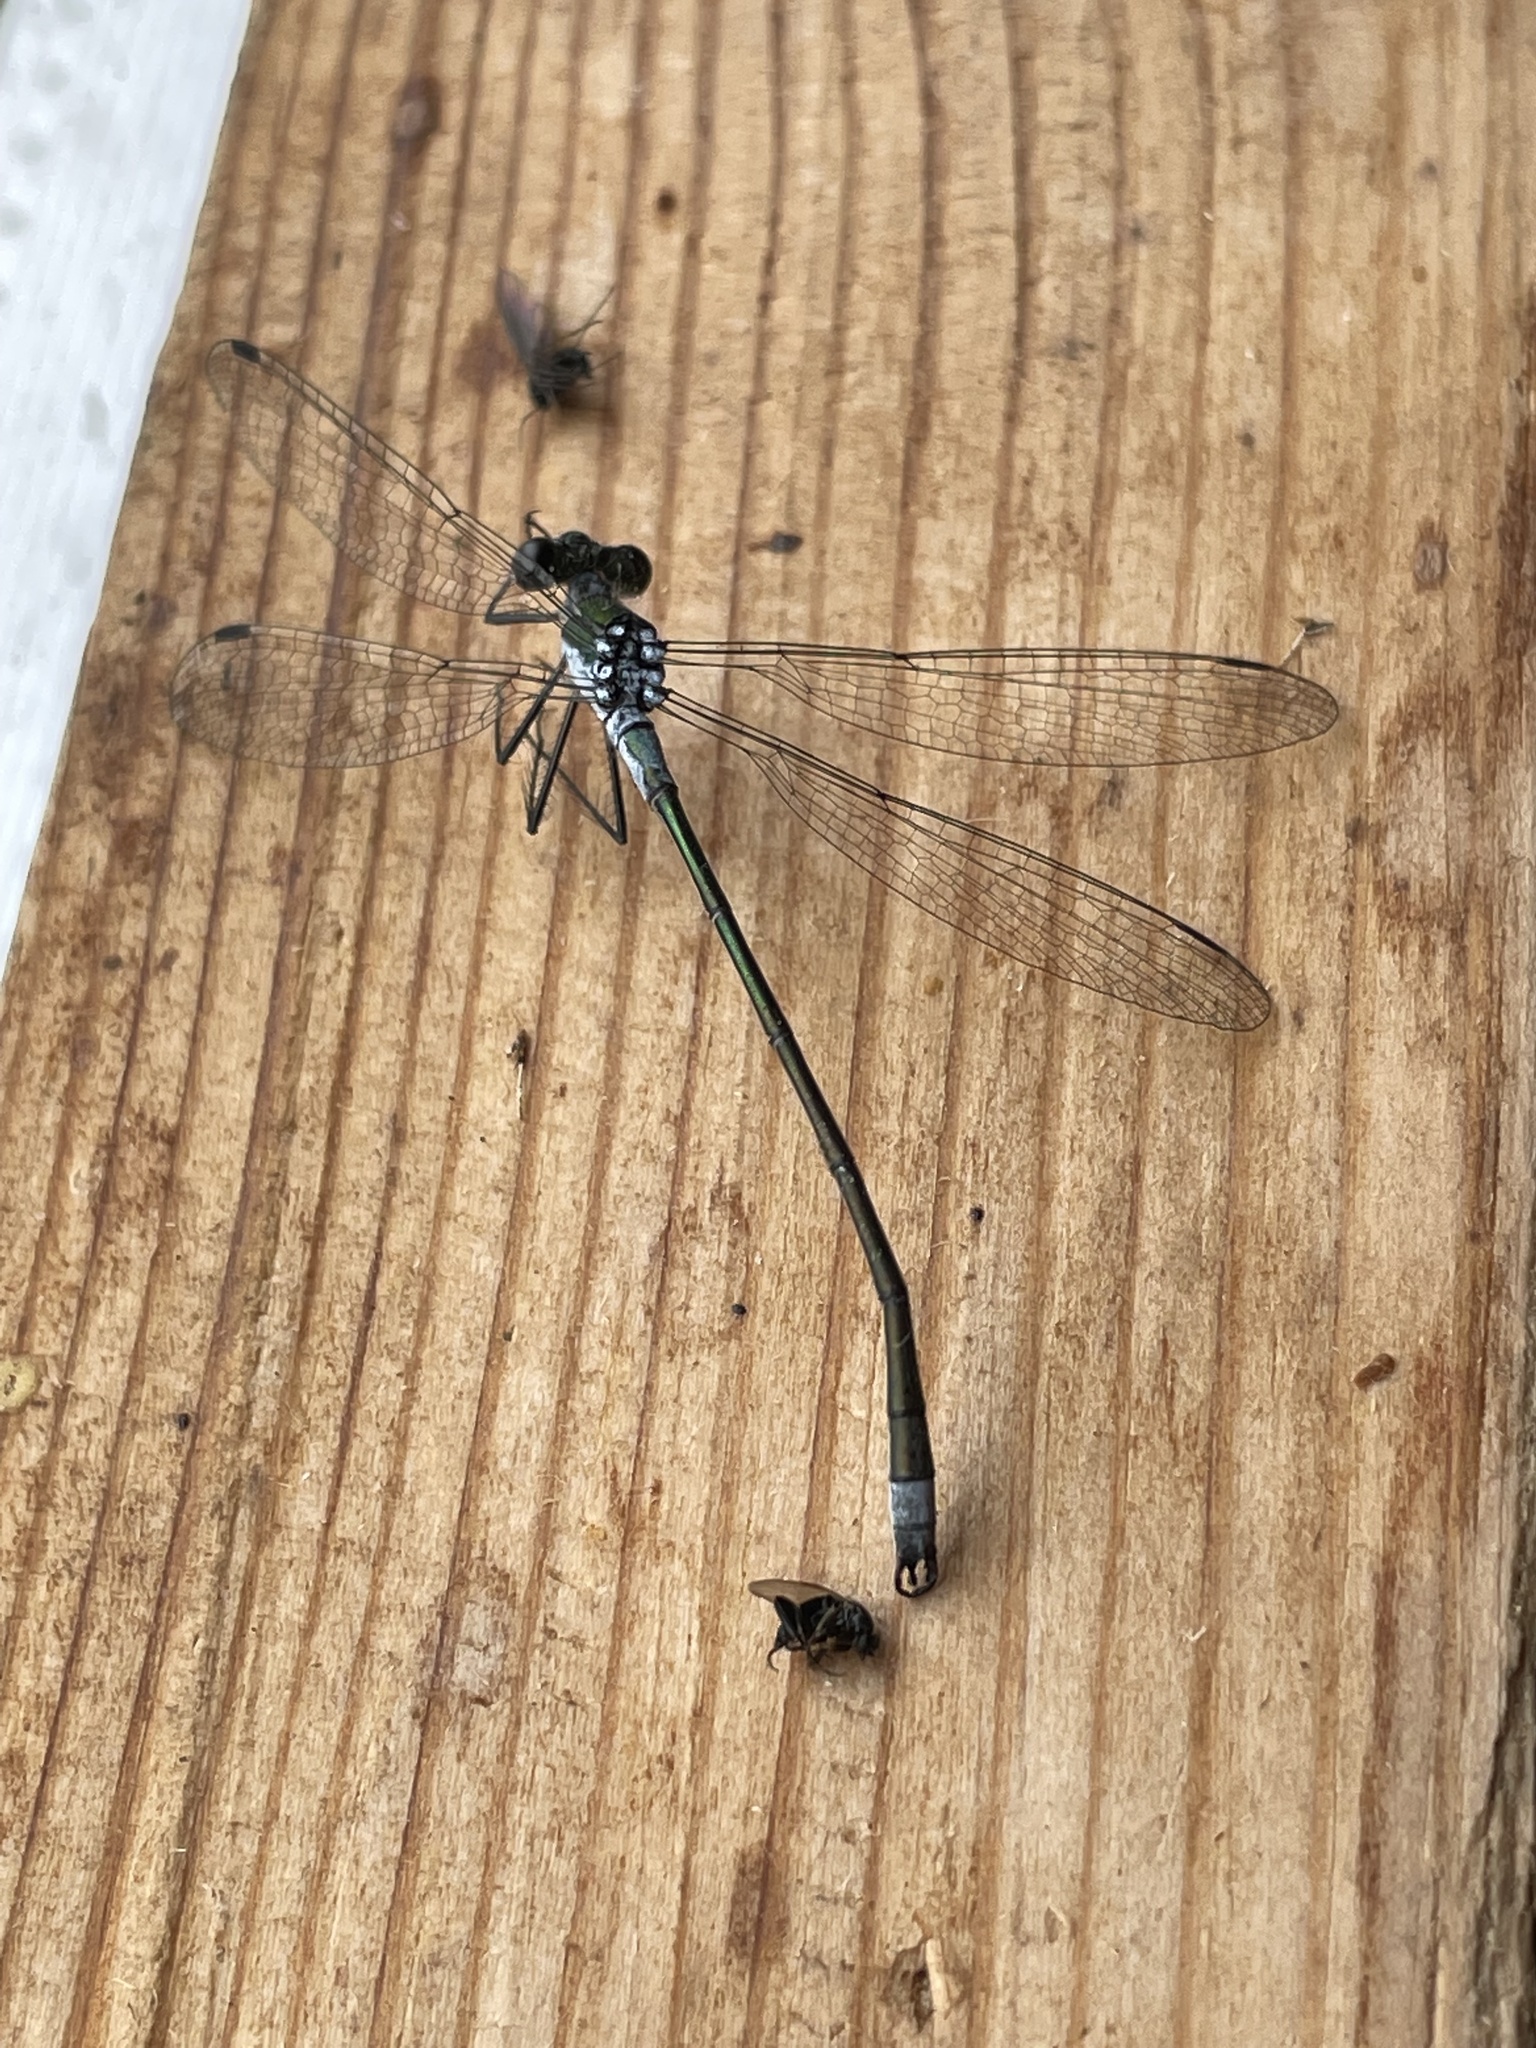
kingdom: Animalia
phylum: Arthropoda
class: Insecta
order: Odonata
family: Lestidae
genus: Lestes
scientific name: Lestes sponsa
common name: Common spreadwing
